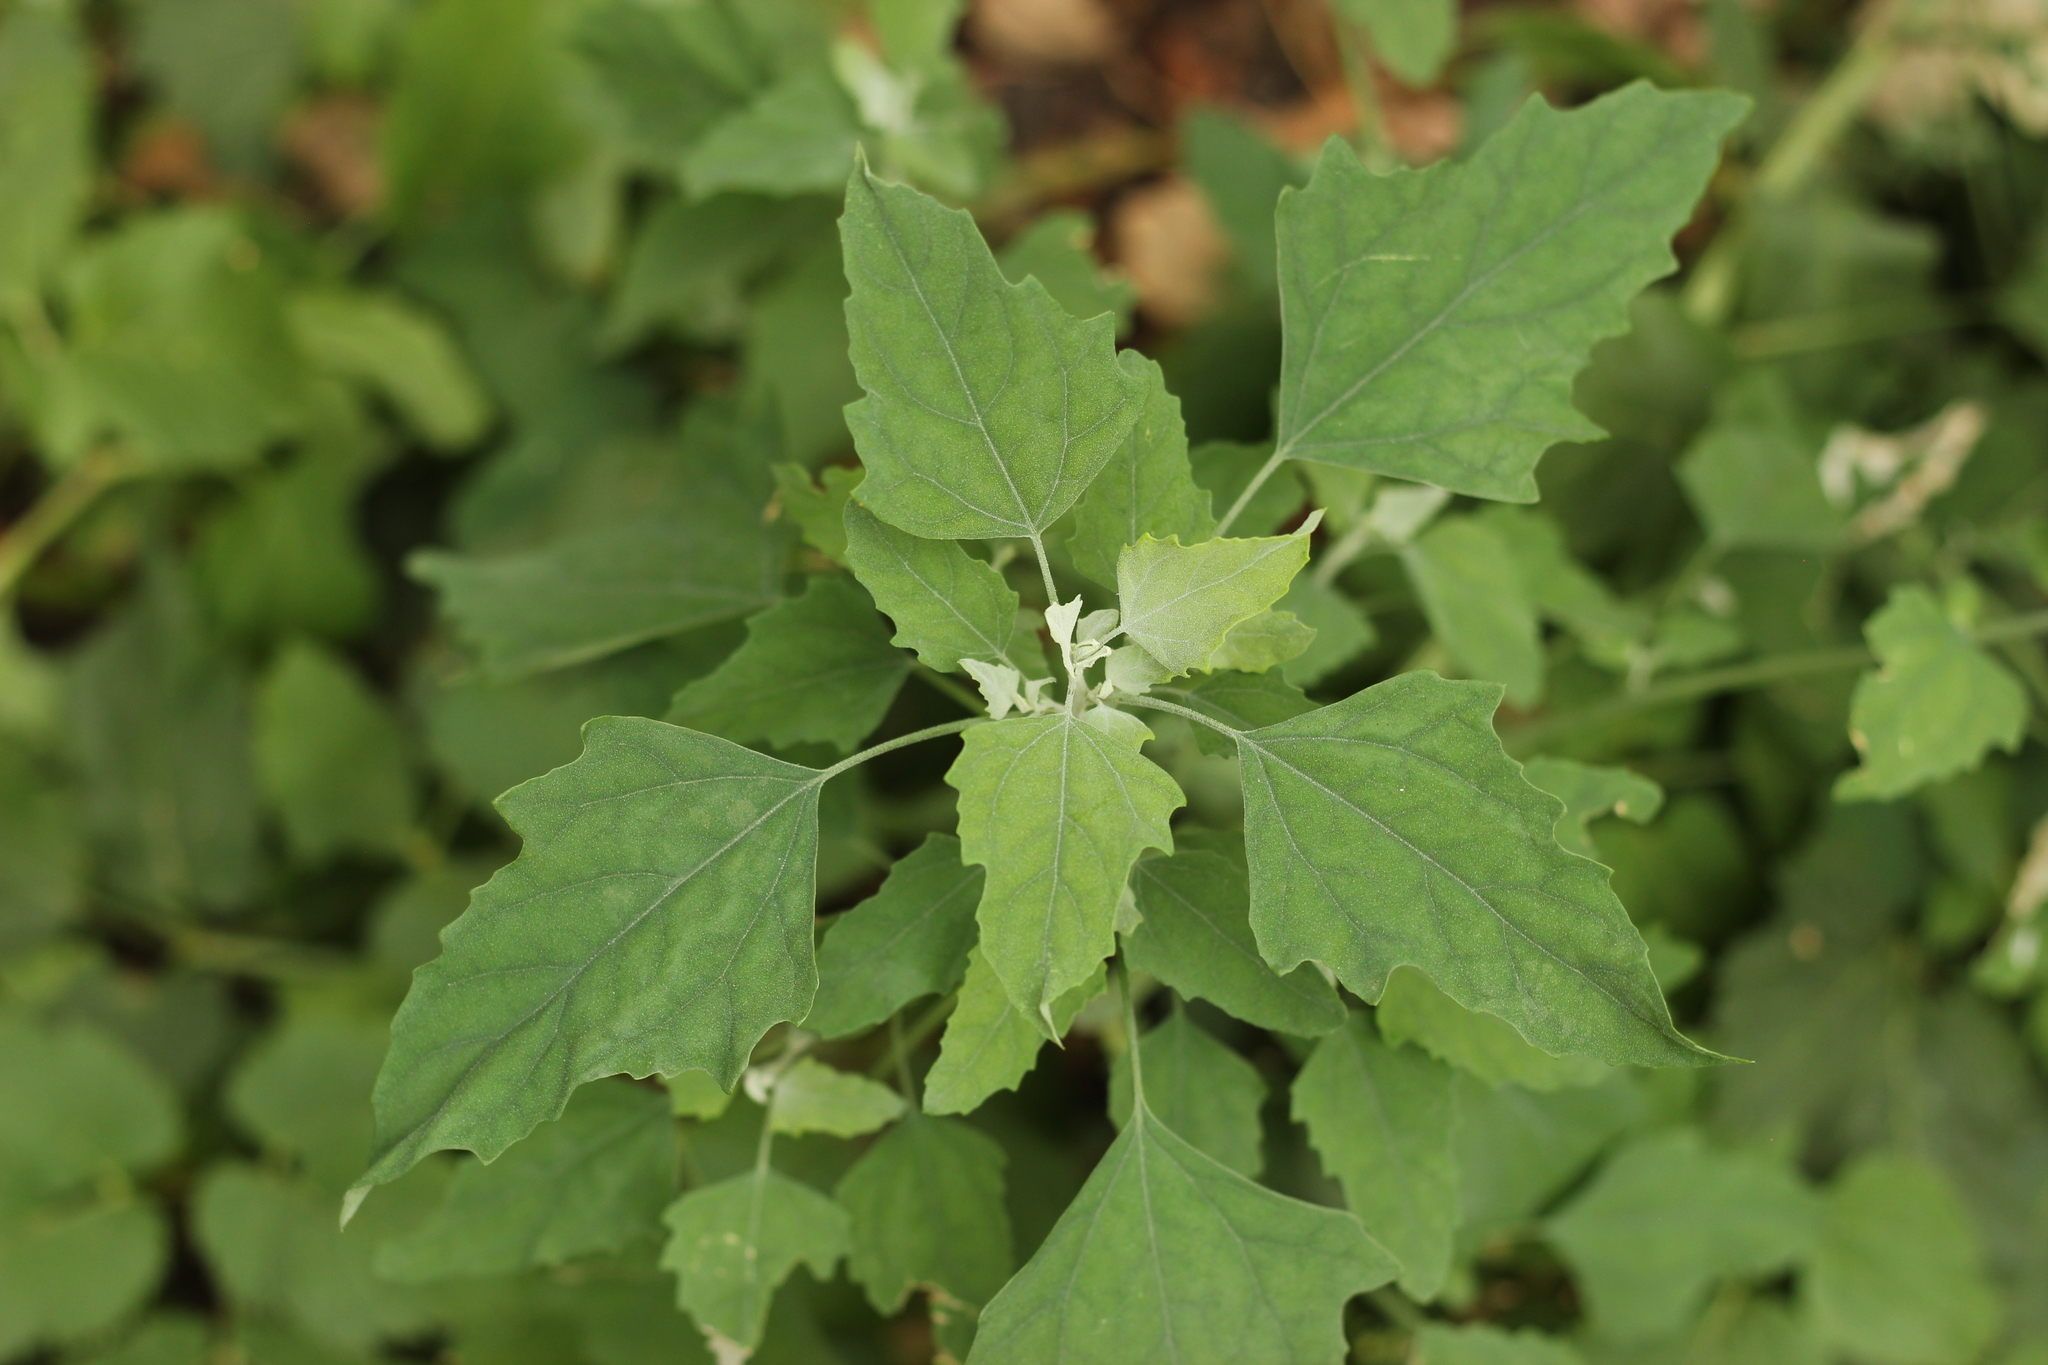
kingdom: Plantae
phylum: Tracheophyta
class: Magnoliopsida
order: Caryophyllales
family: Amaranthaceae
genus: Chenopodium
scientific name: Chenopodium album
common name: Fat-hen
